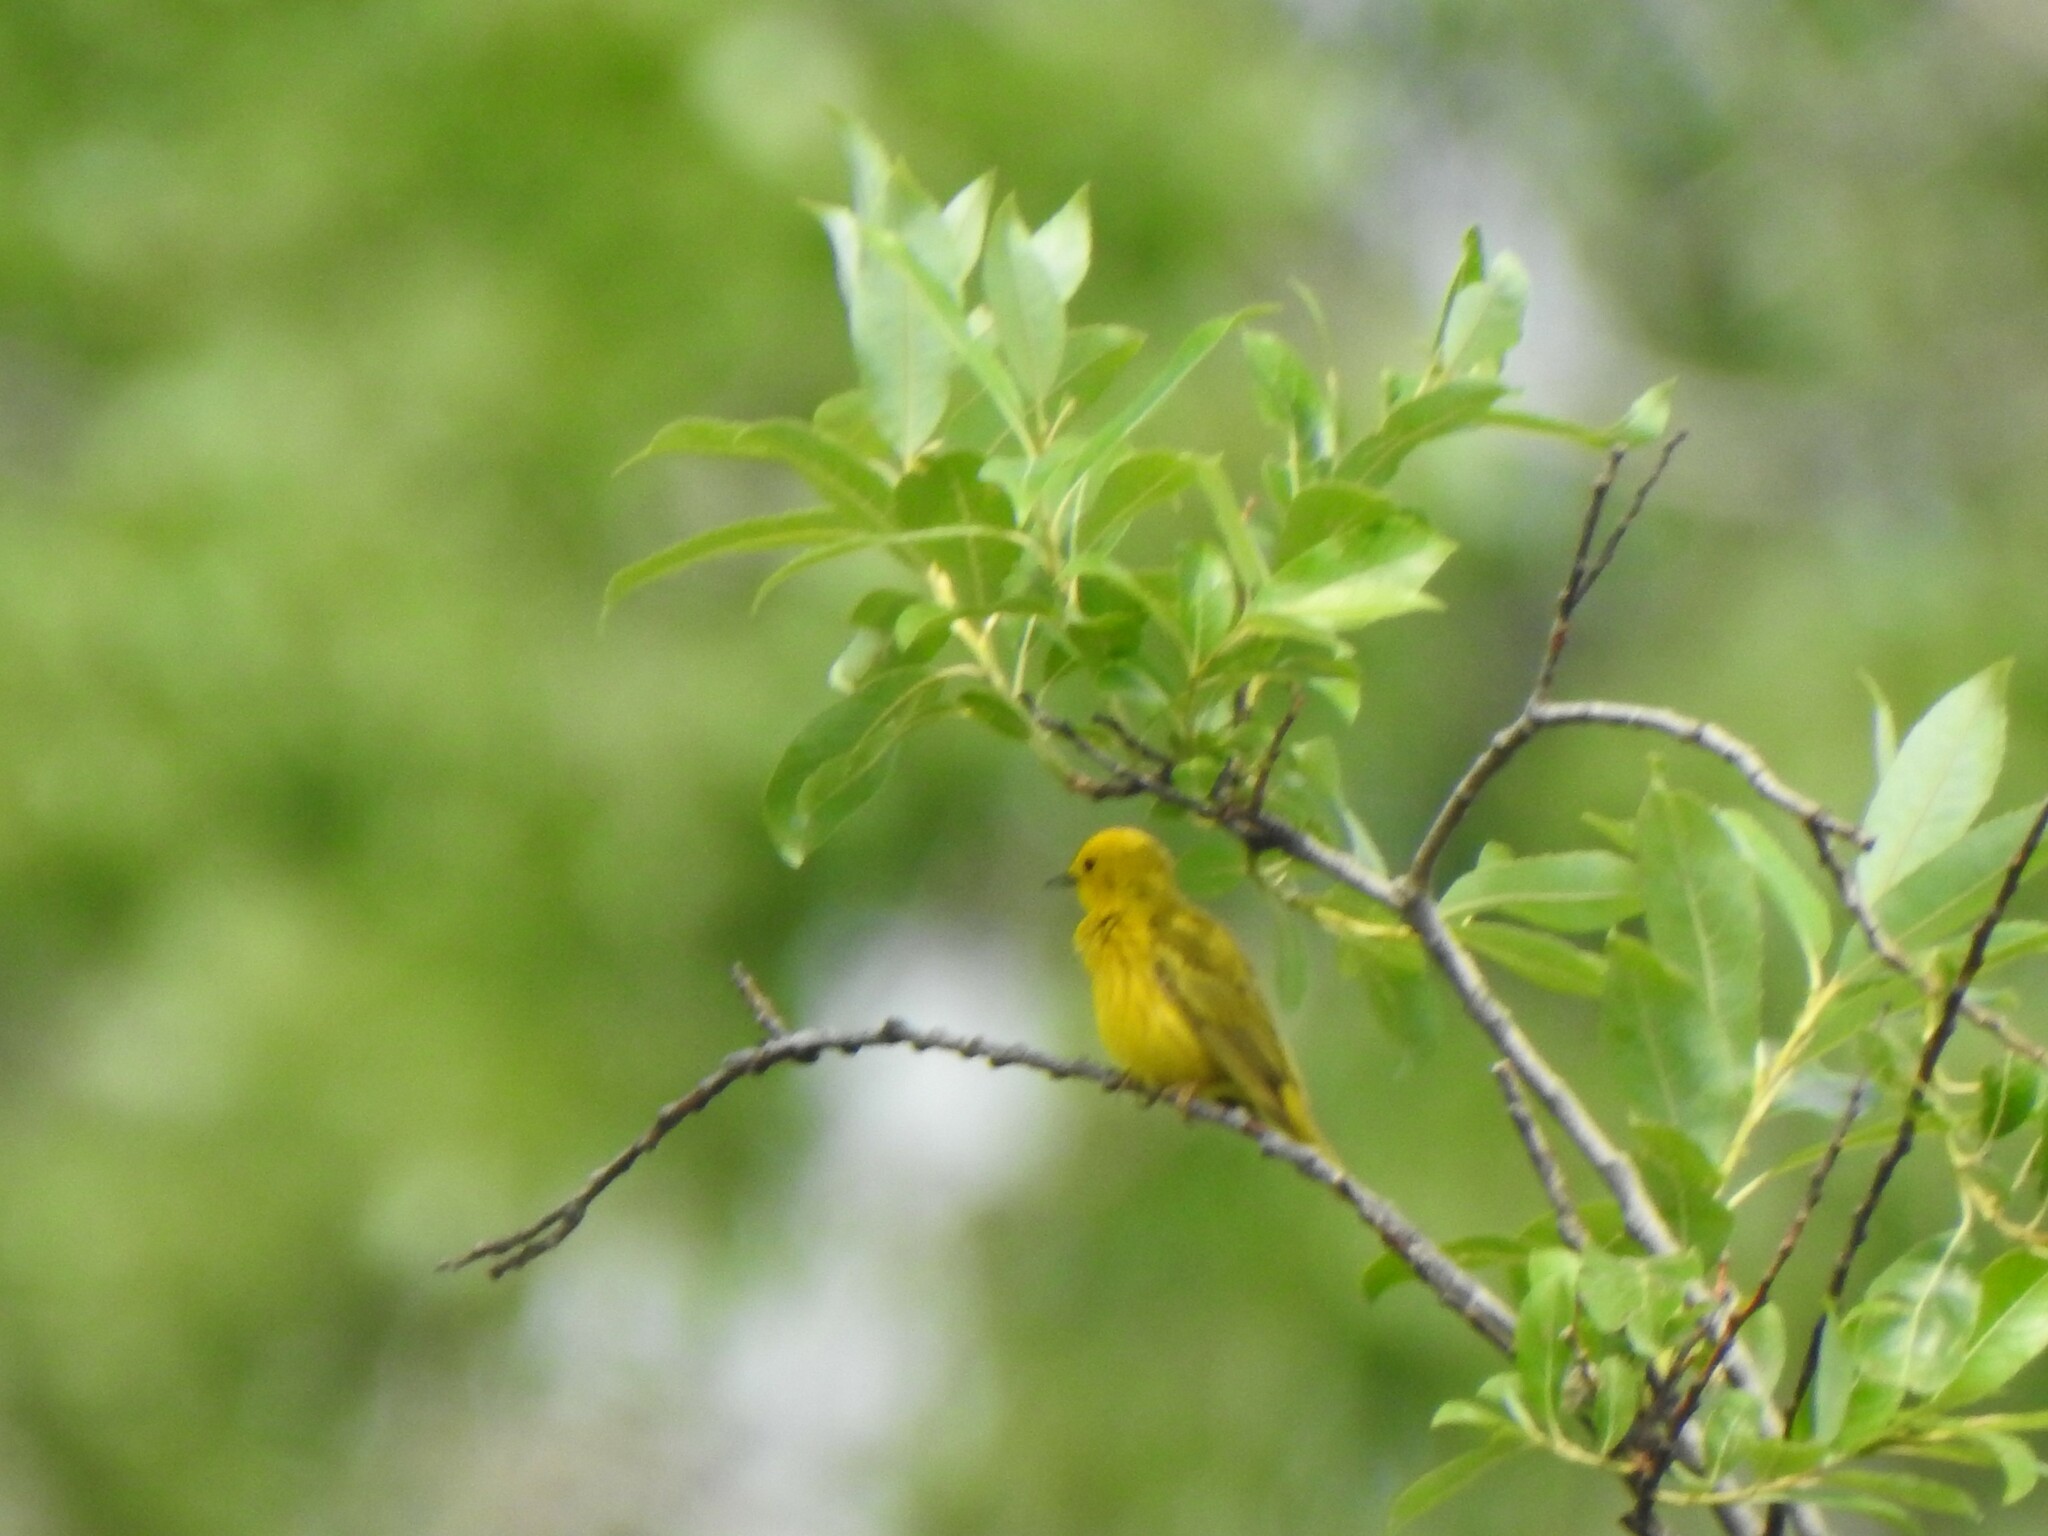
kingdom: Animalia
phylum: Chordata
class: Aves
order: Passeriformes
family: Parulidae
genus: Setophaga
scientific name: Setophaga petechia
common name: Yellow warbler
